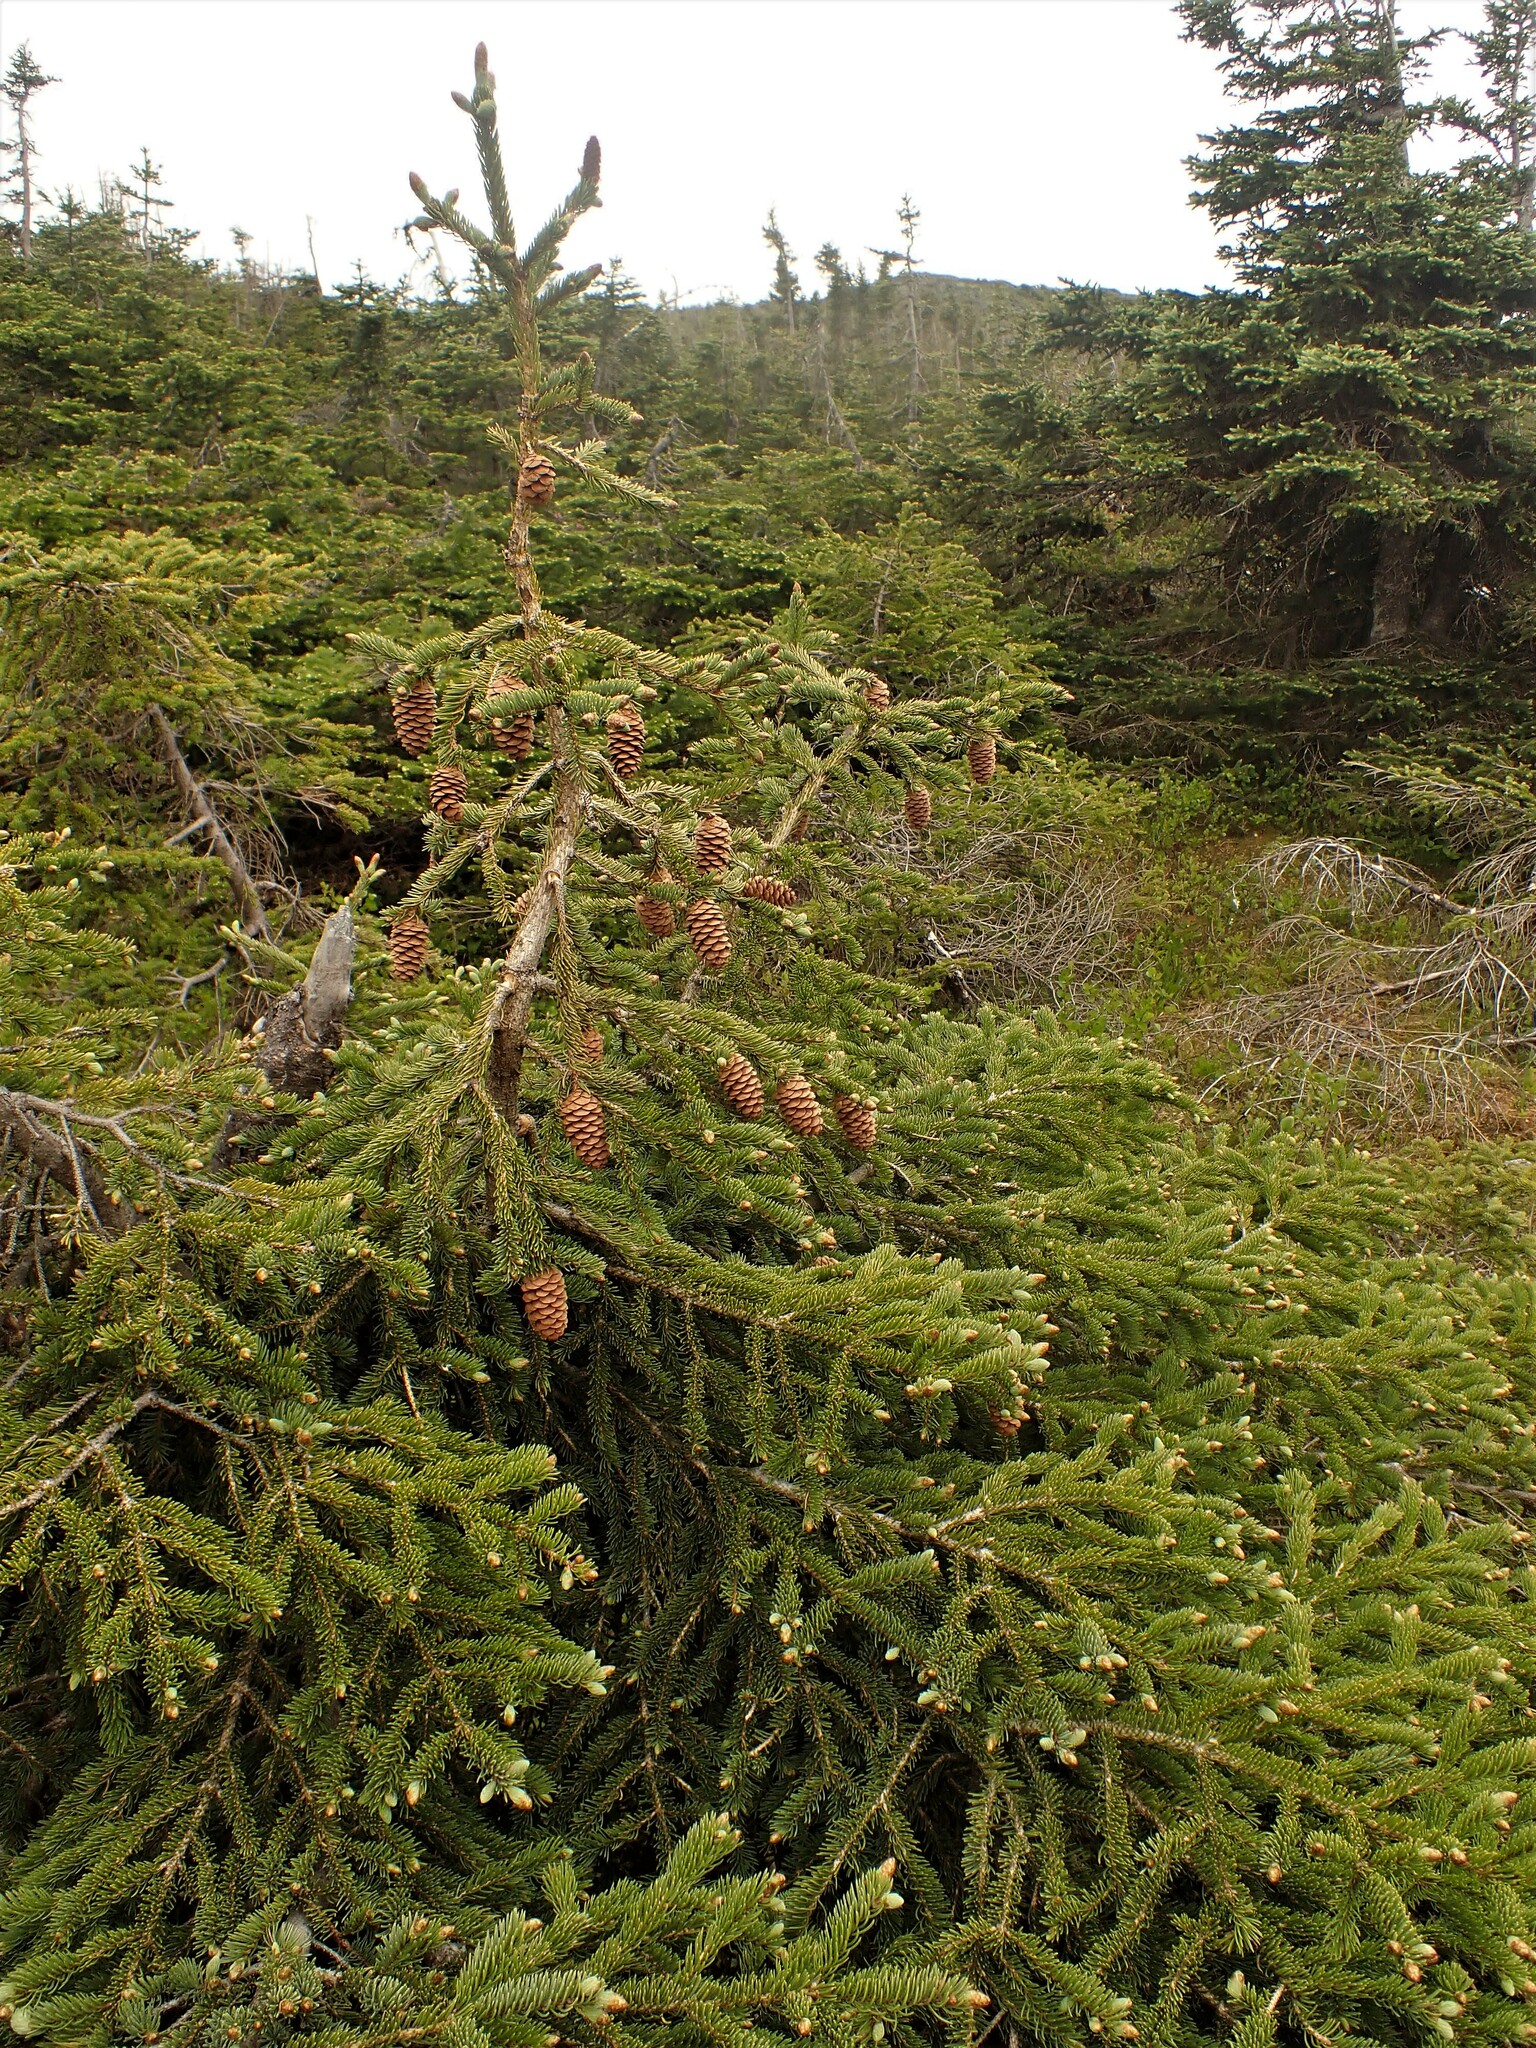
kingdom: Plantae
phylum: Tracheophyta
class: Pinopsida
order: Pinales
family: Pinaceae
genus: Picea
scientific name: Picea glauca
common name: White spruce
